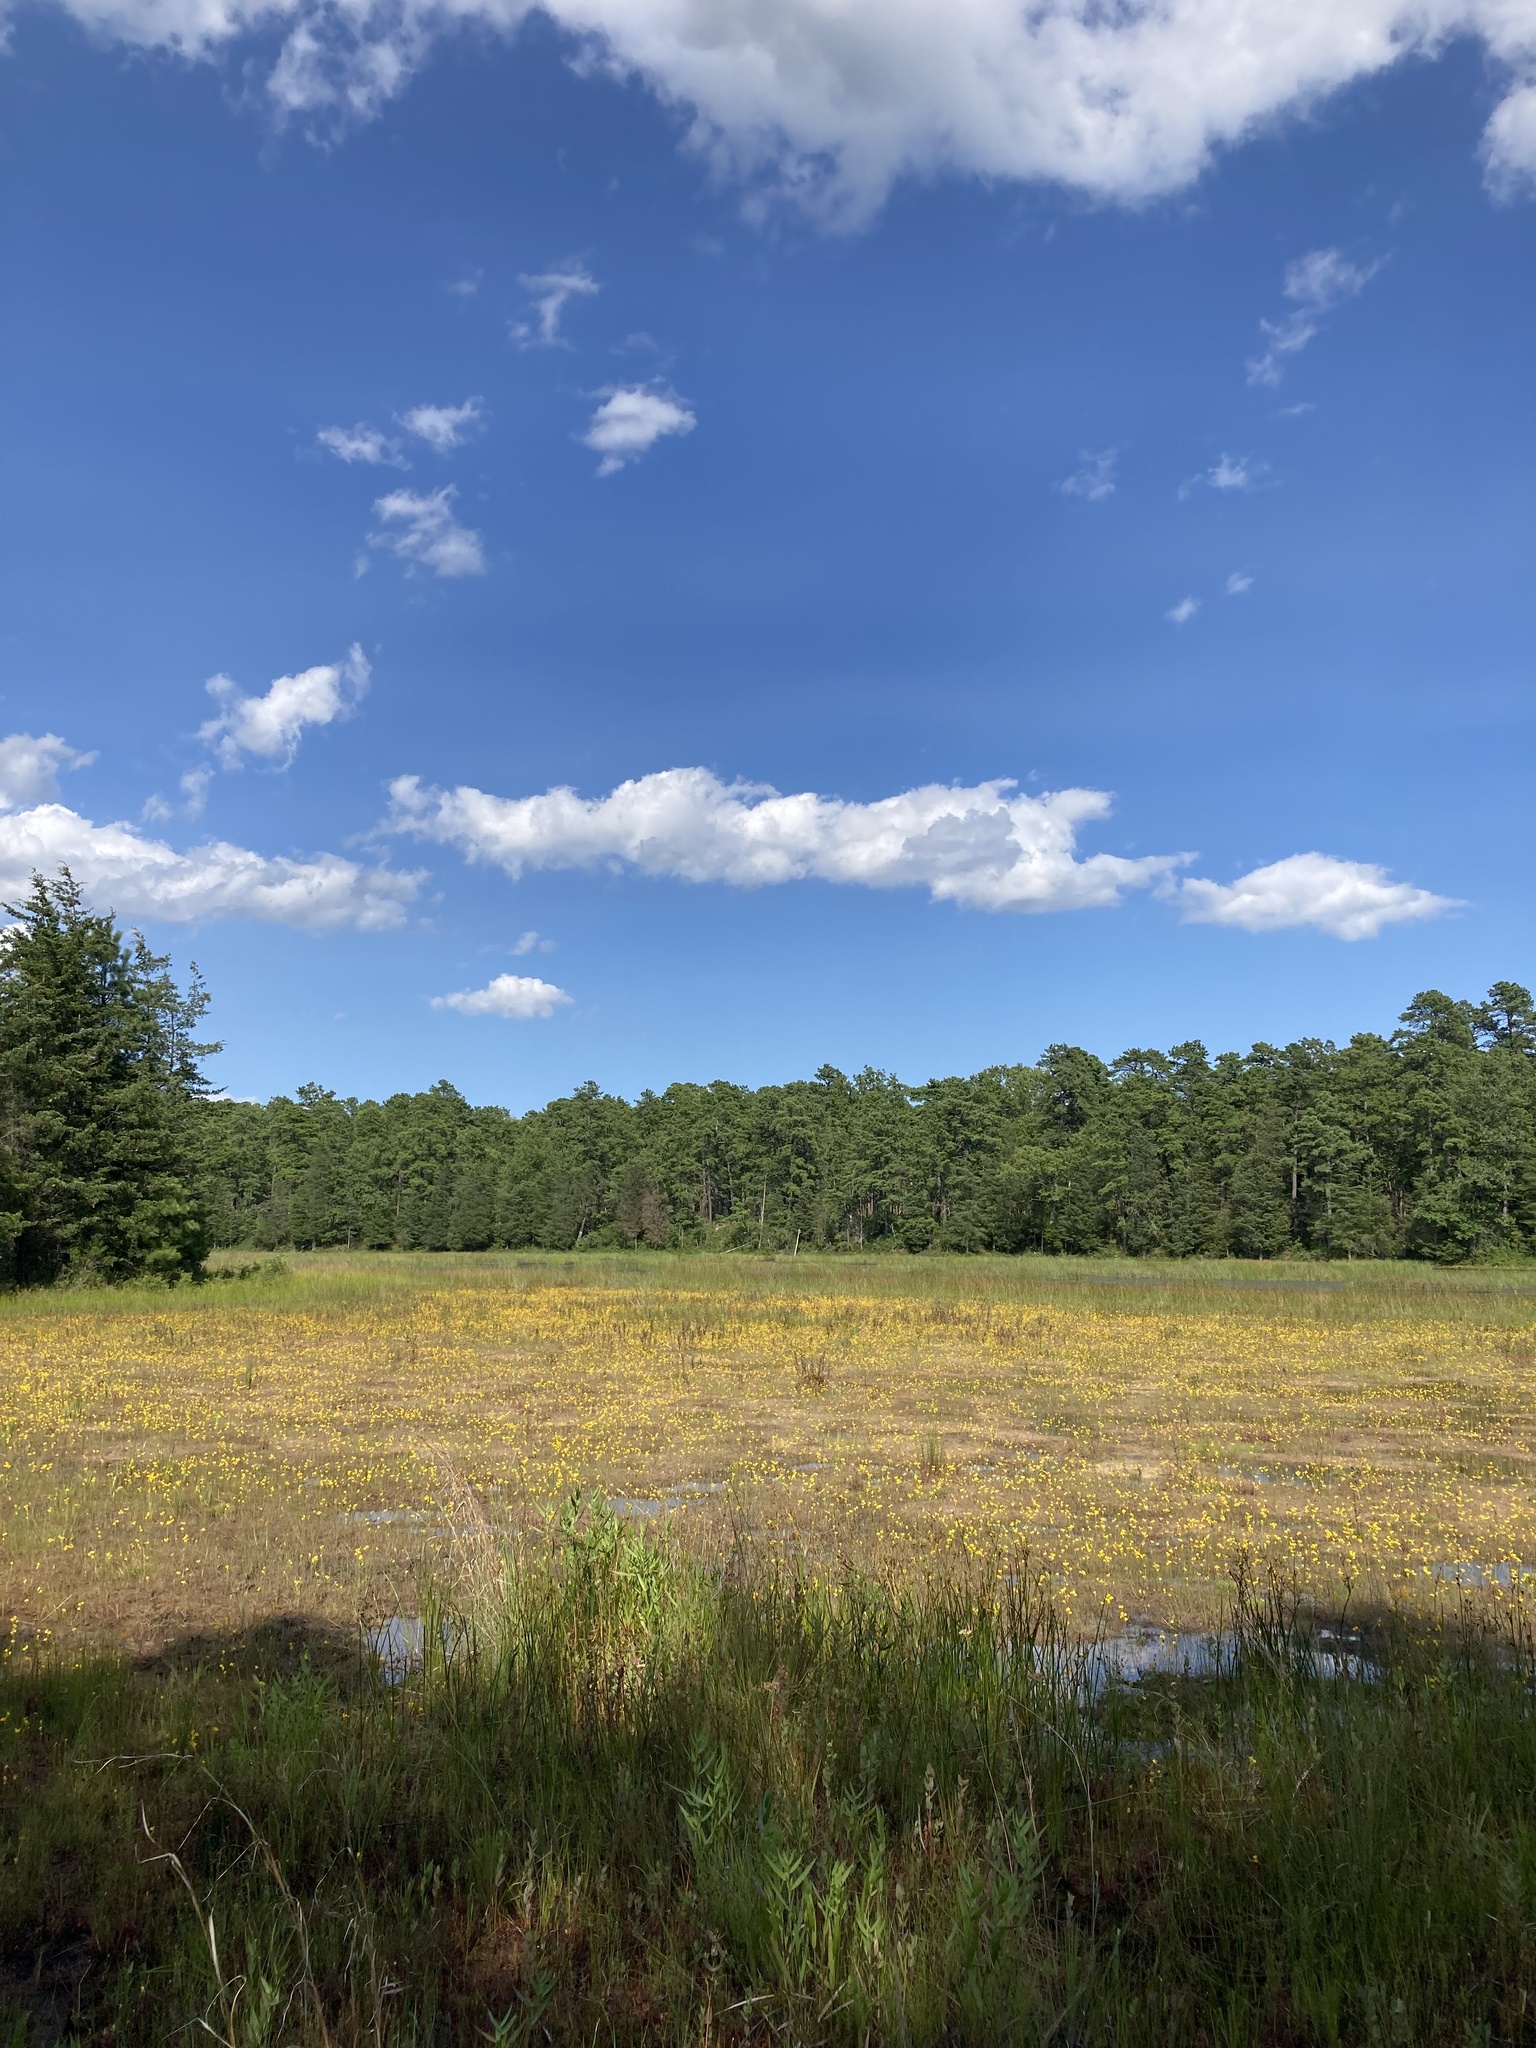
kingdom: Plantae
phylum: Tracheophyta
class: Magnoliopsida
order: Lamiales
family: Lentibulariaceae
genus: Utricularia
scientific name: Utricularia cornuta
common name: Horned bladderwort
